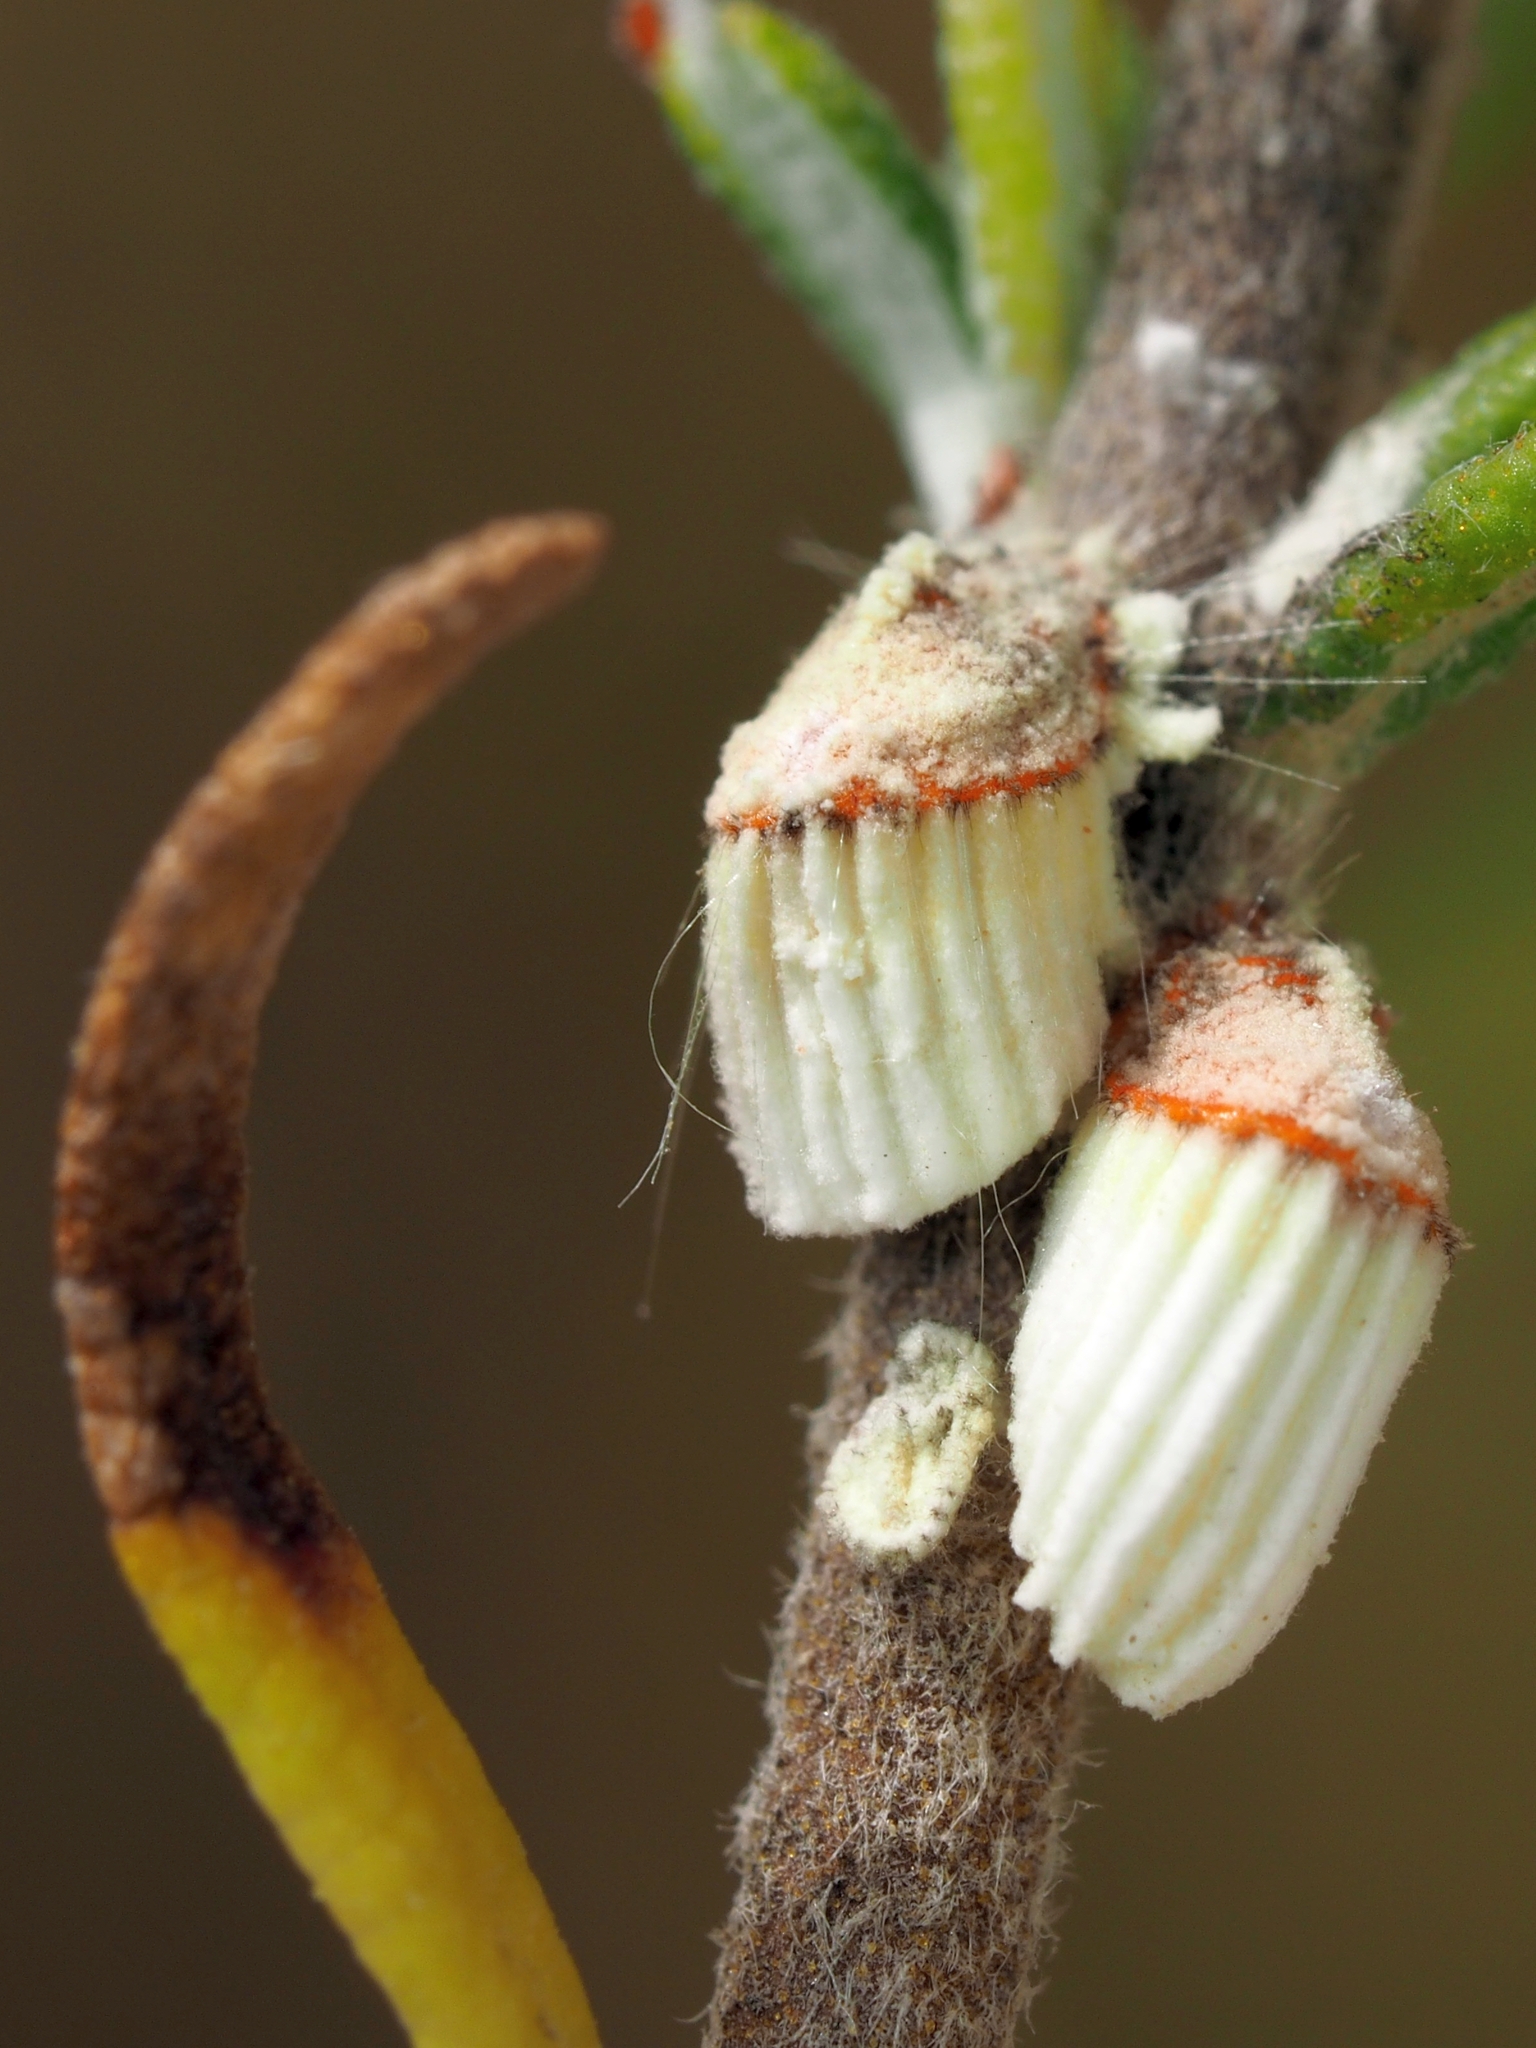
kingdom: Animalia
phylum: Arthropoda
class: Insecta
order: Hemiptera
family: Margarodidae
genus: Icerya
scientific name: Icerya purchasi
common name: Cottony cushion scale
